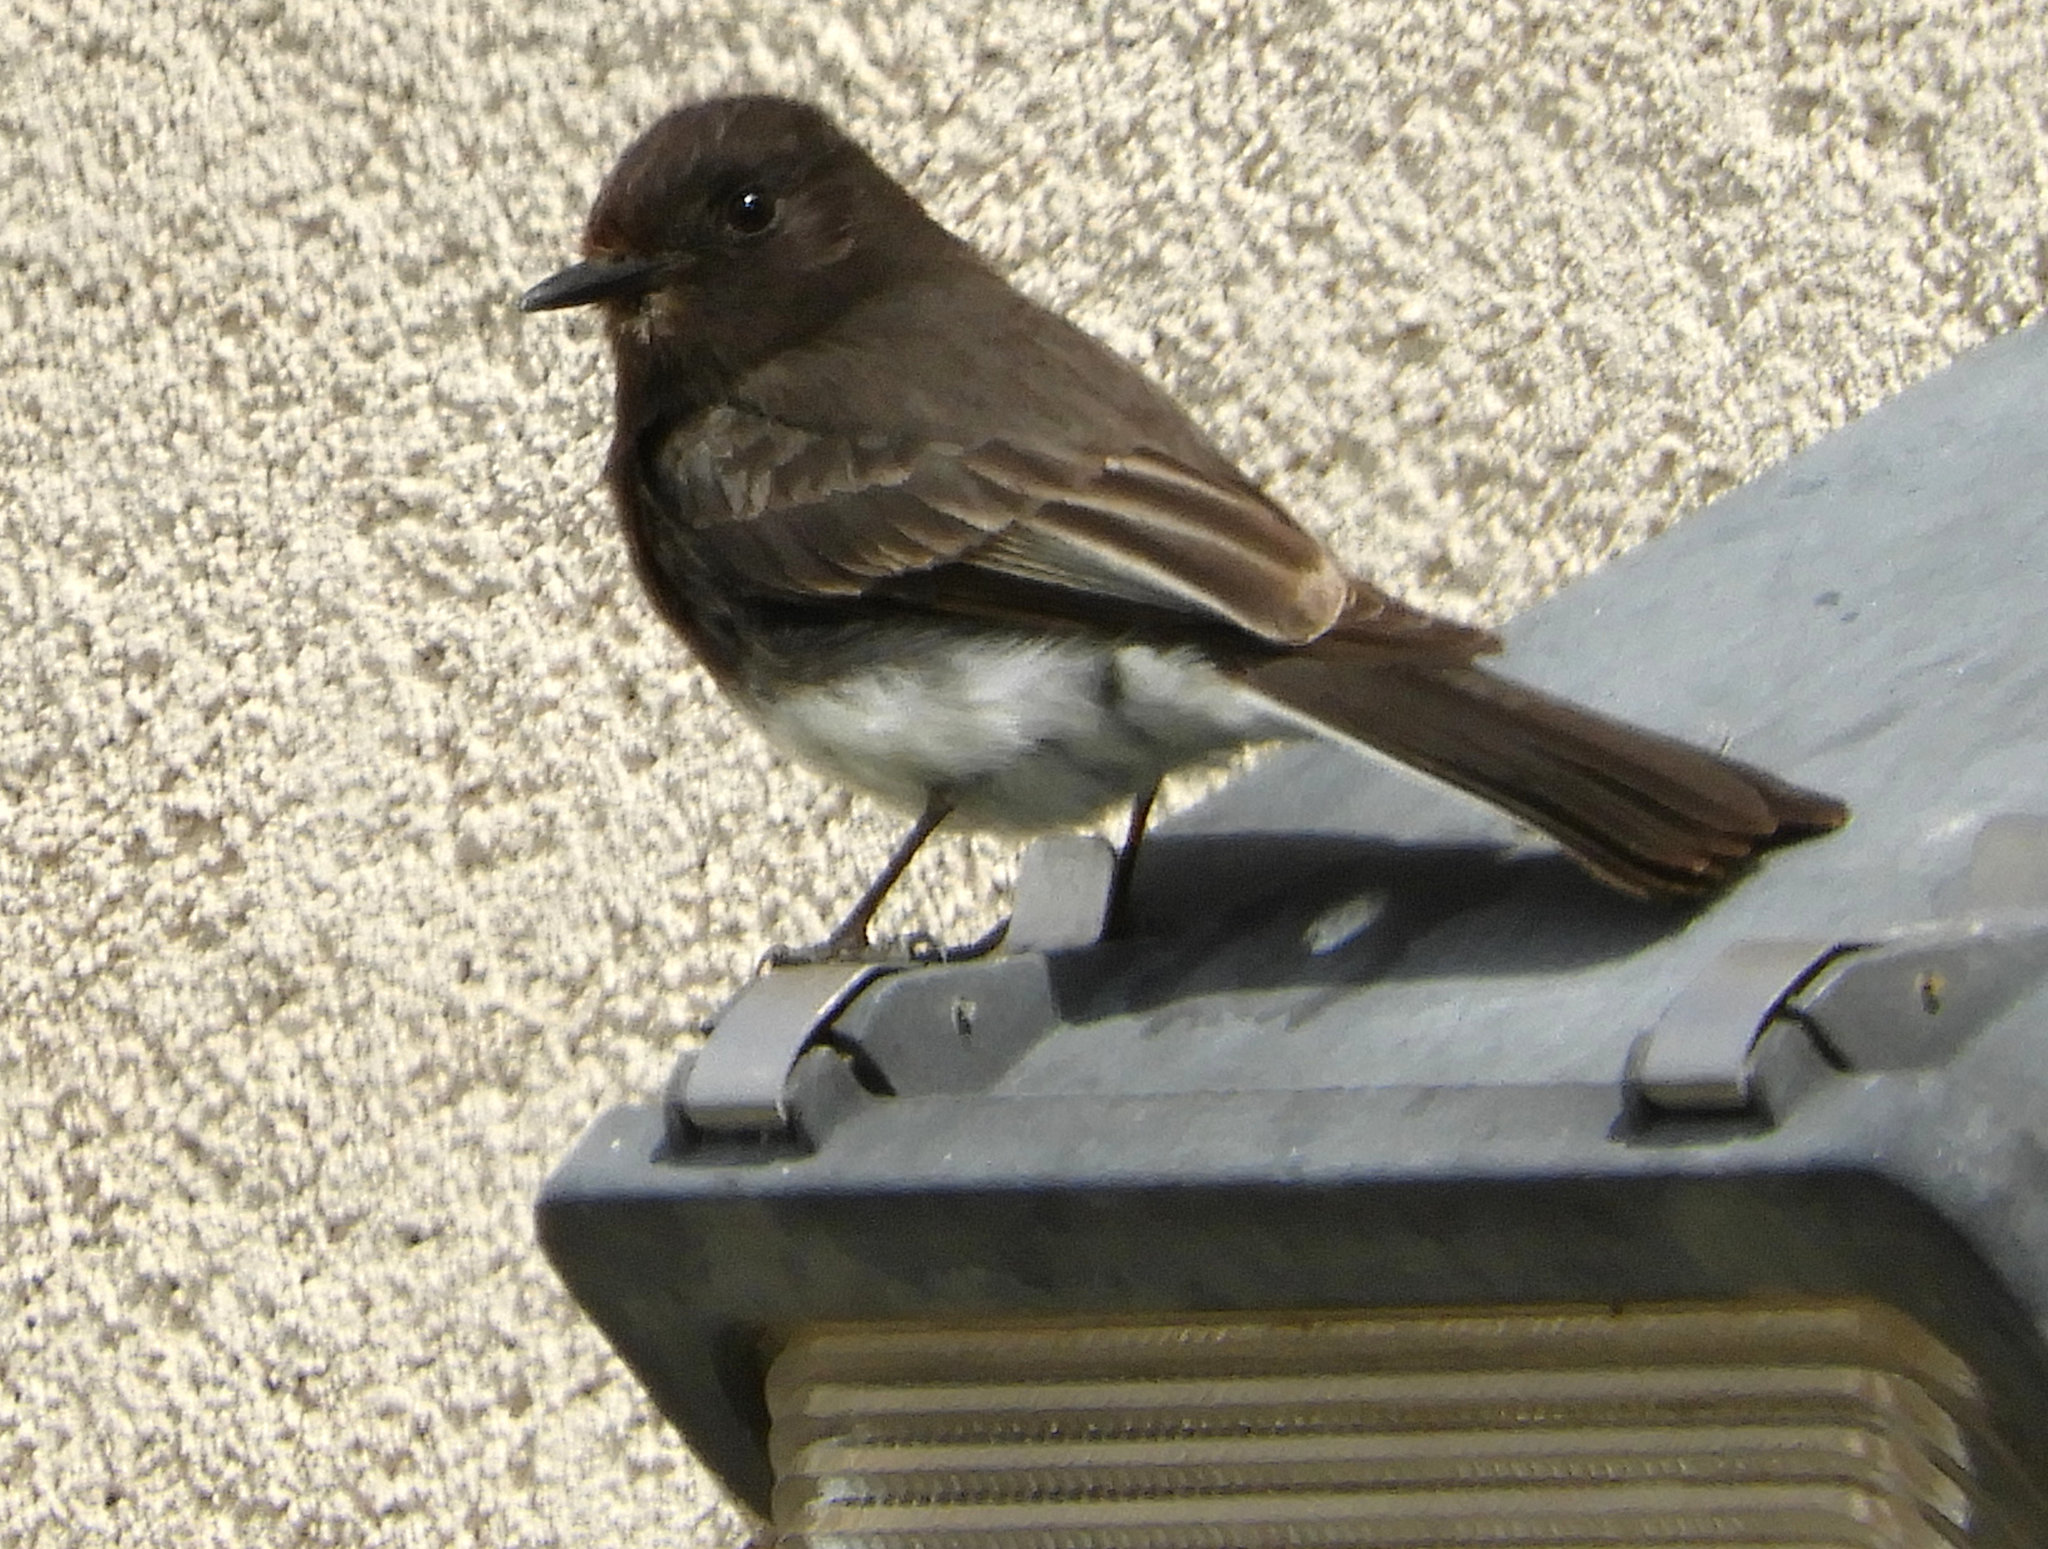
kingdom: Animalia
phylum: Chordata
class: Aves
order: Passeriformes
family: Tyrannidae
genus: Sayornis
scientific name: Sayornis nigricans
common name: Black phoebe
